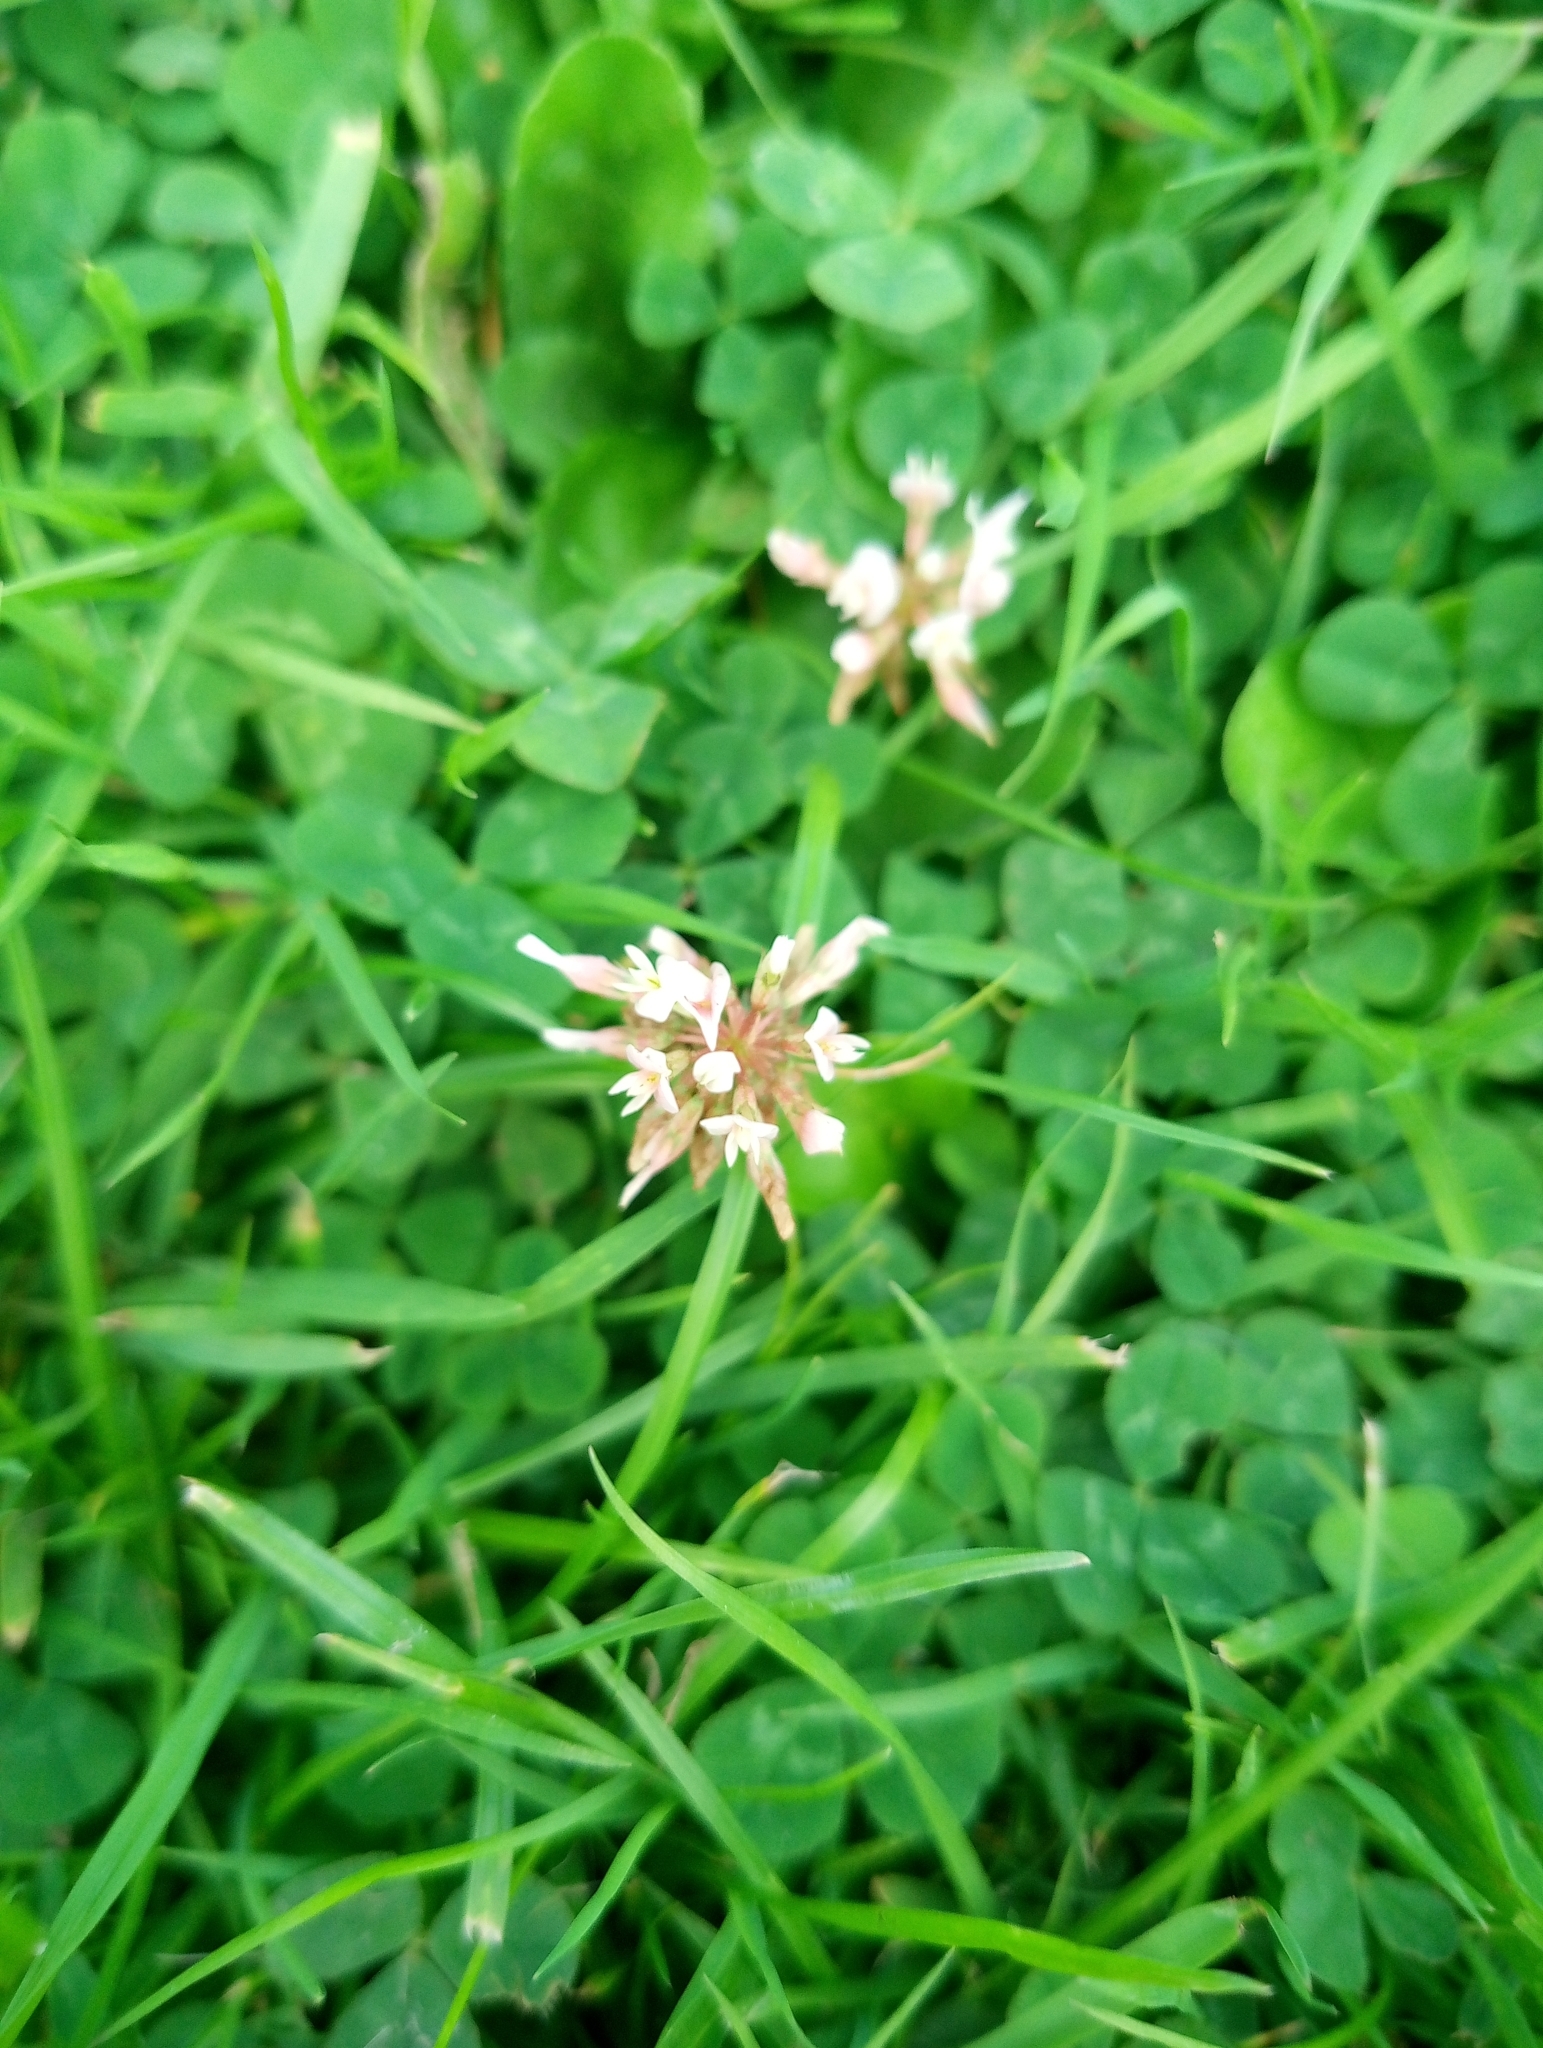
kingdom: Plantae
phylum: Tracheophyta
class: Magnoliopsida
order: Fabales
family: Fabaceae
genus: Trifolium
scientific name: Trifolium repens
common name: White clover
